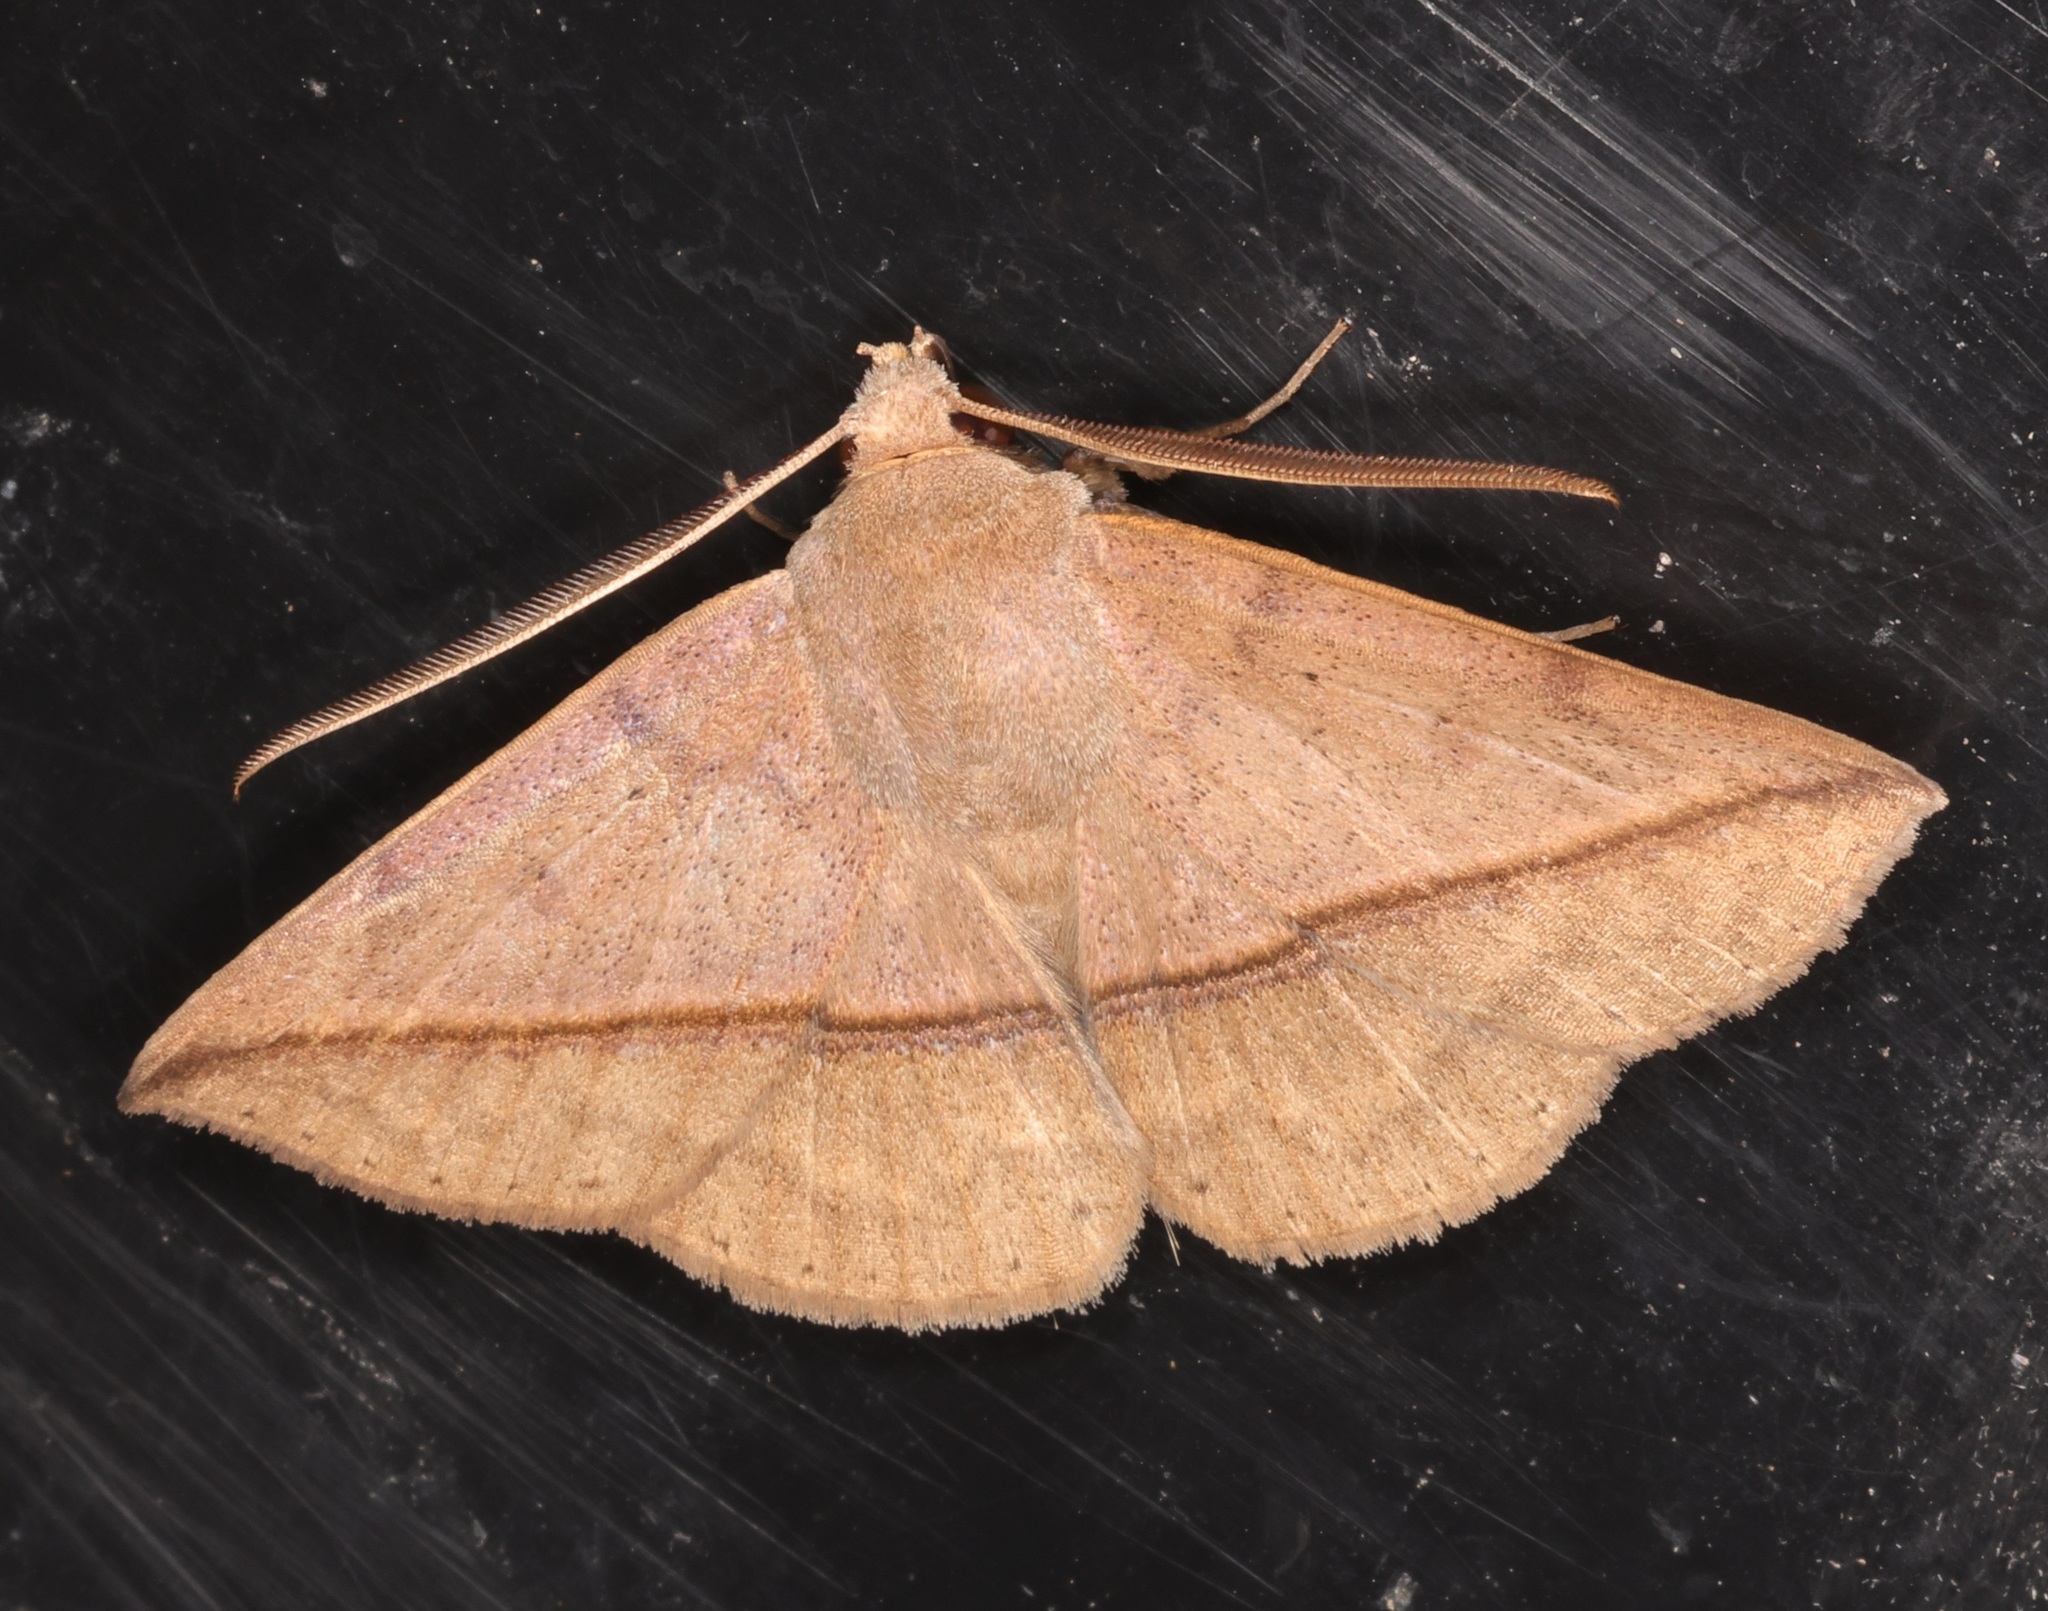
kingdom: Animalia
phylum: Arthropoda
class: Insecta
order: Lepidoptera
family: Erebidae
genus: Ugia
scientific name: Ugia purpurea
